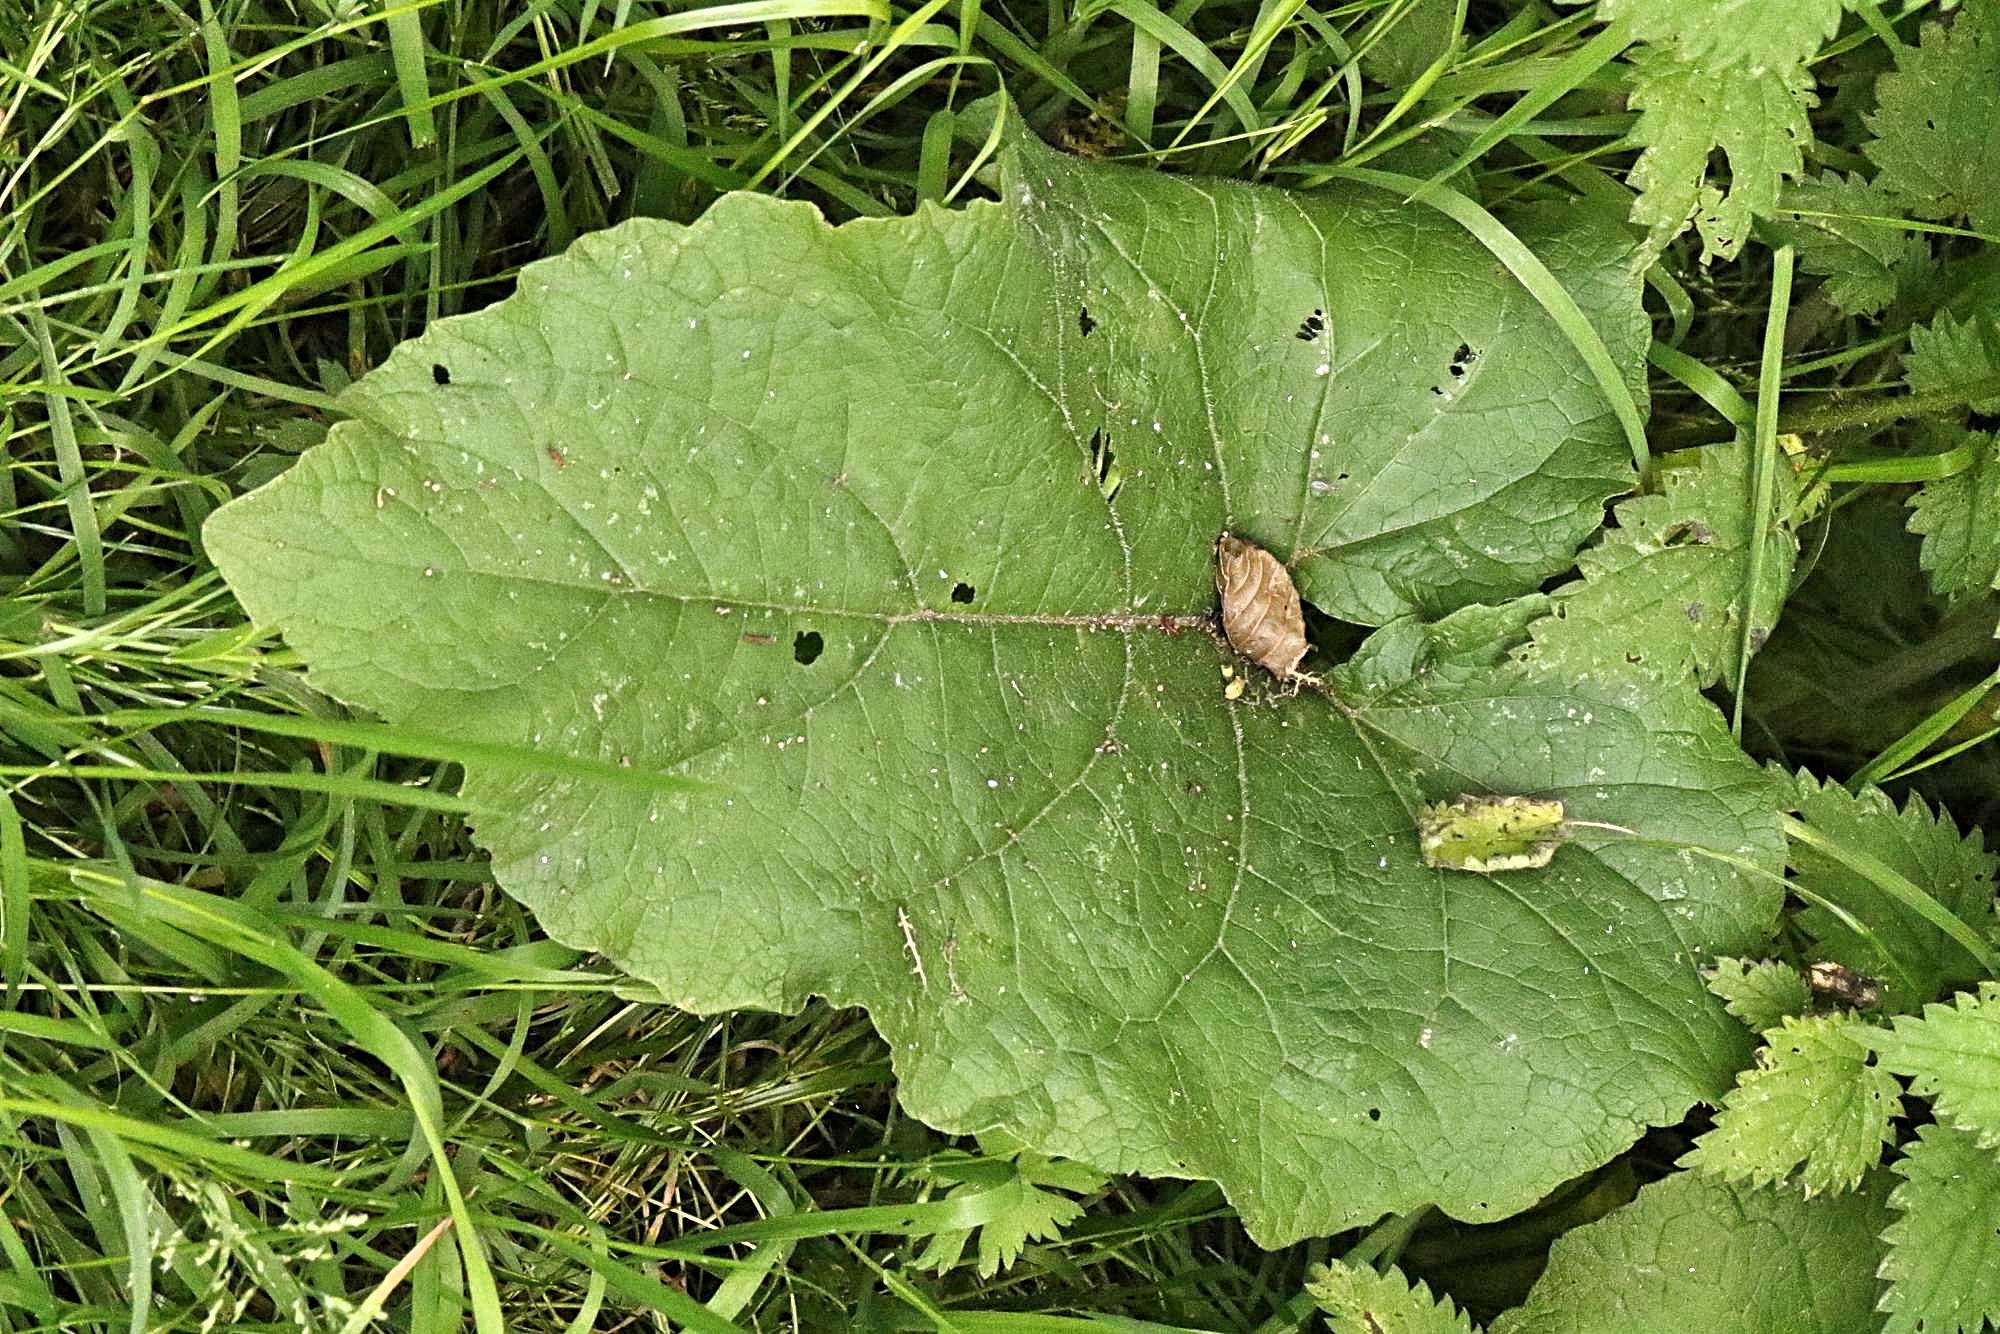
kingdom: Plantae
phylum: Tracheophyta
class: Magnoliopsida
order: Asterales
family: Asteraceae
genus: Arctium
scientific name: Arctium minus
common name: Lesser burdock
